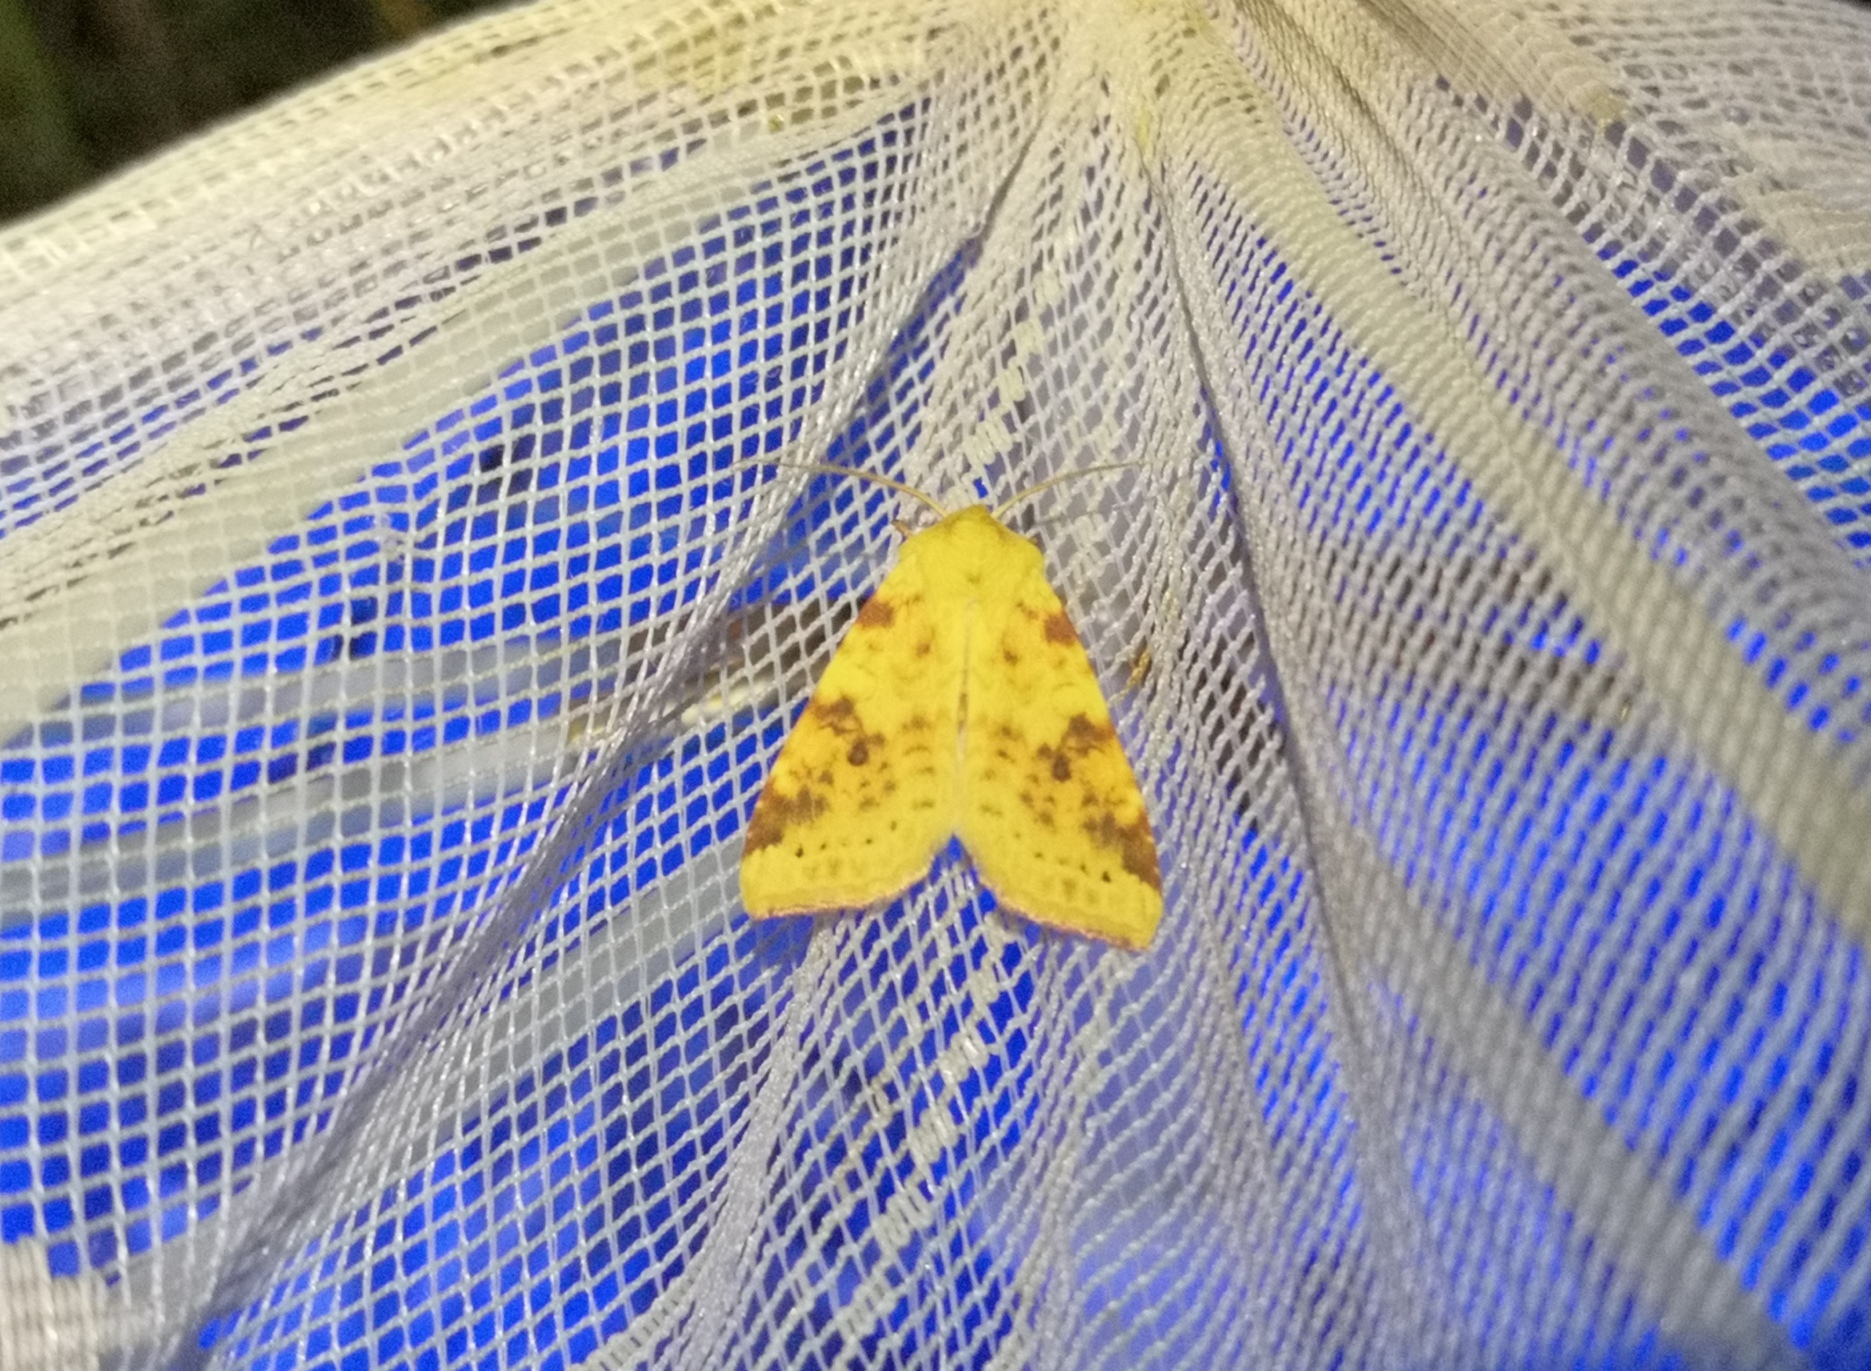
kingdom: Animalia
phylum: Arthropoda
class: Insecta
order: Lepidoptera
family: Noctuidae
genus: Xanthia
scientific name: Xanthia icteritia
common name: The sallow
